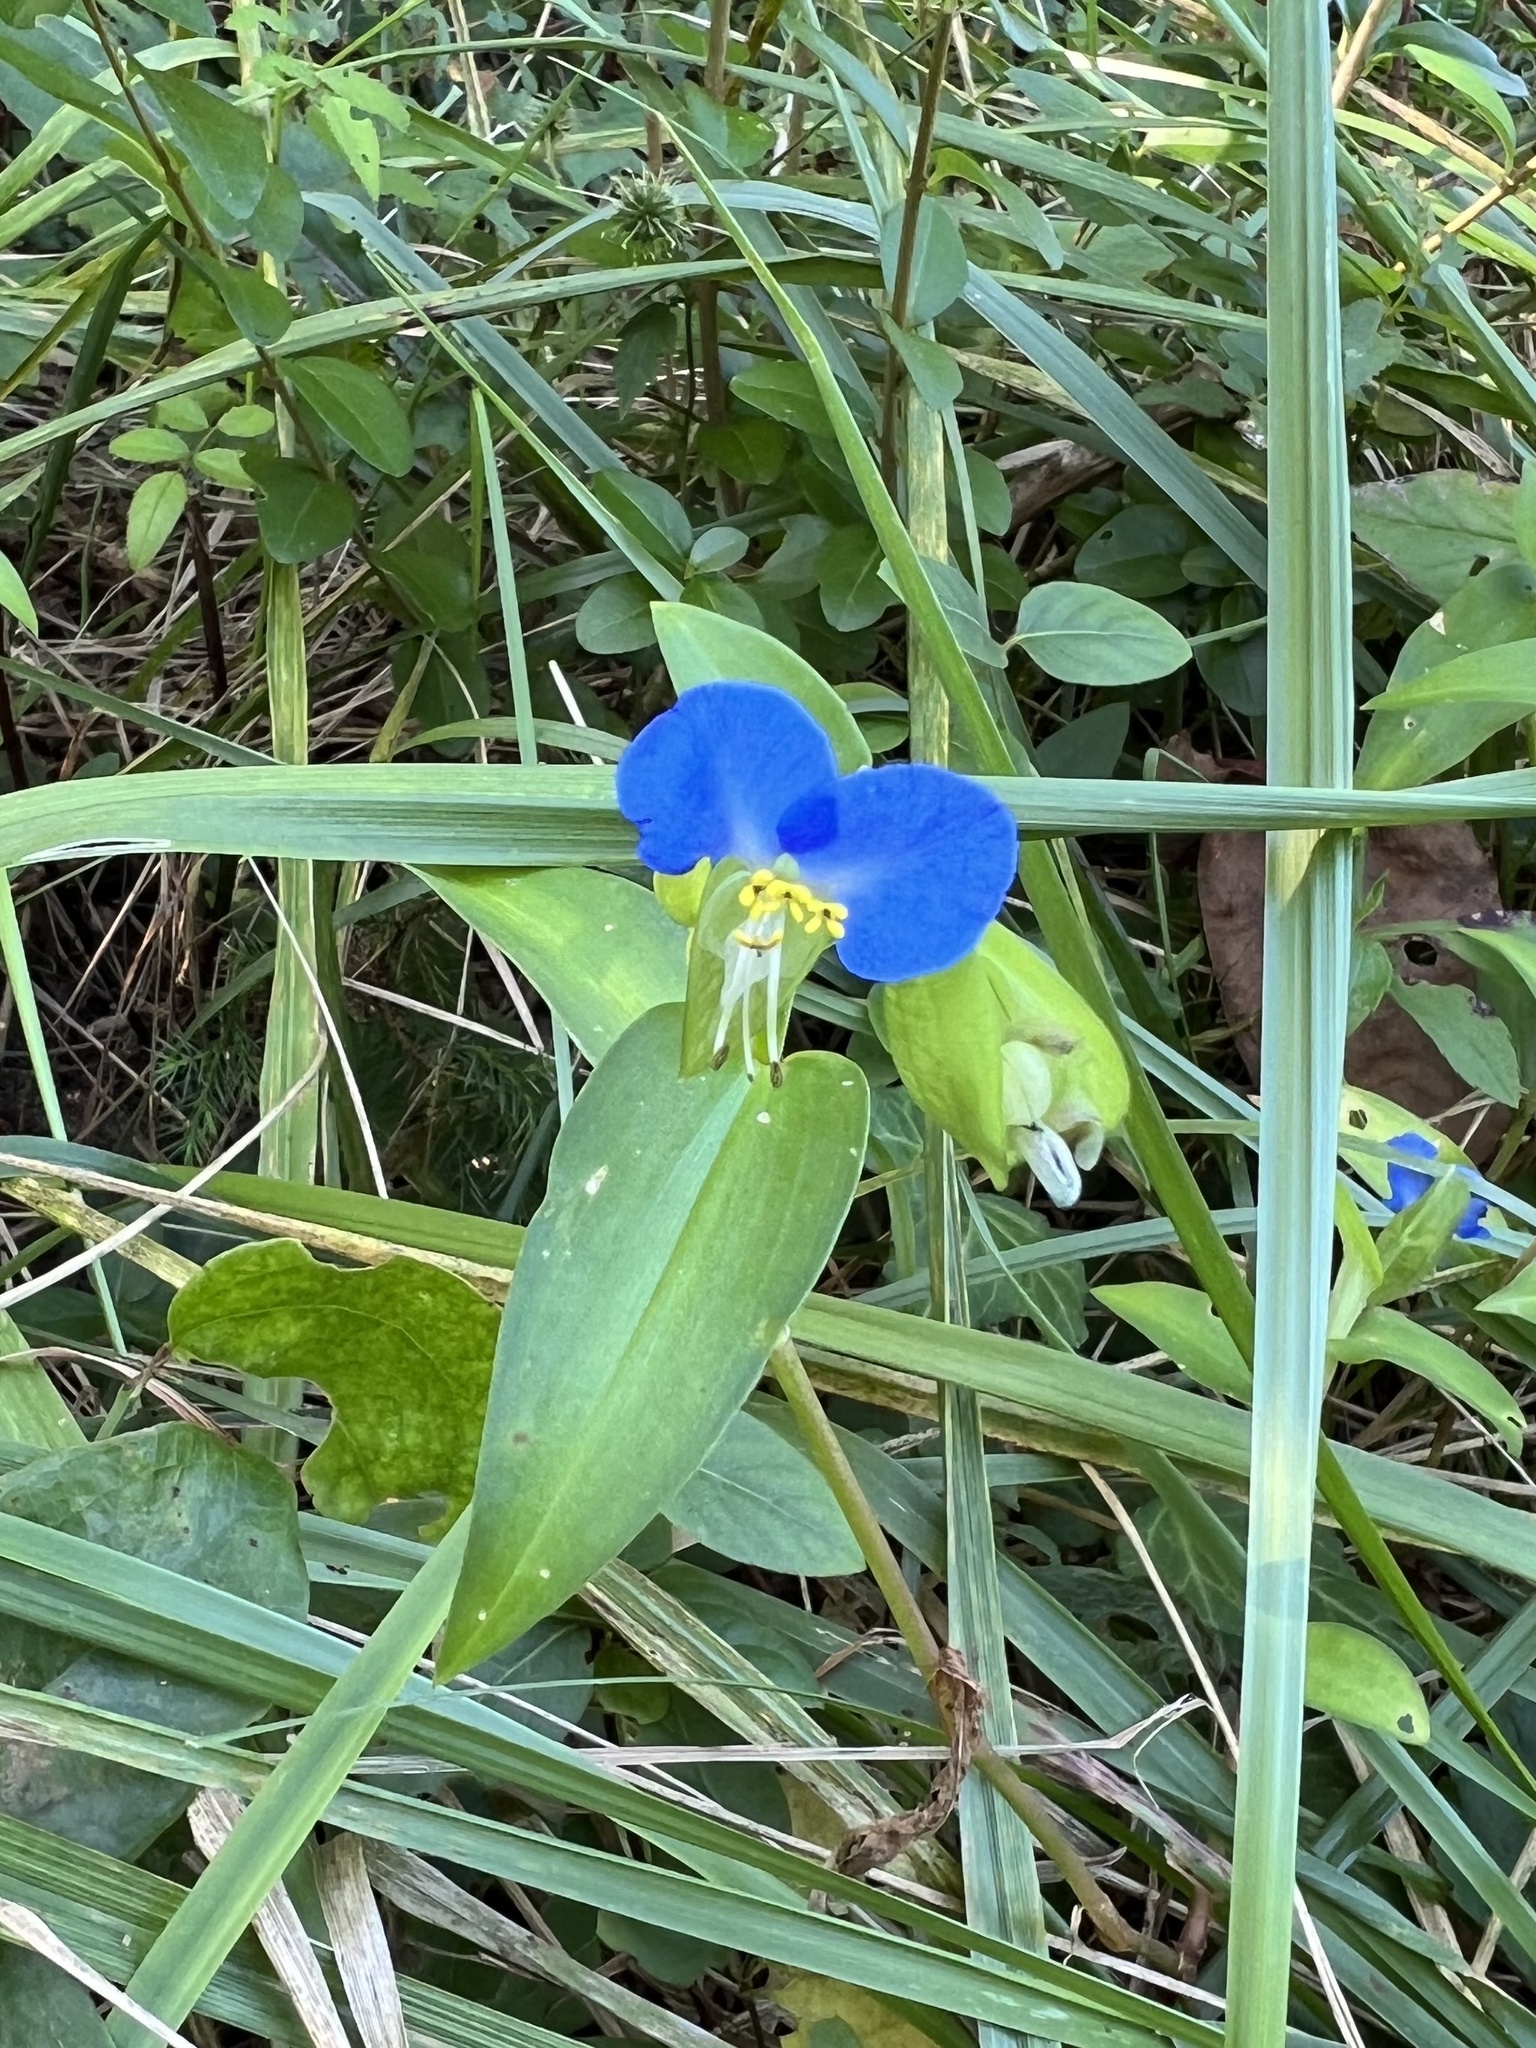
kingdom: Plantae
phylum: Tracheophyta
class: Liliopsida
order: Commelinales
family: Commelinaceae
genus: Commelina
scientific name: Commelina communis
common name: Asiatic dayflower
